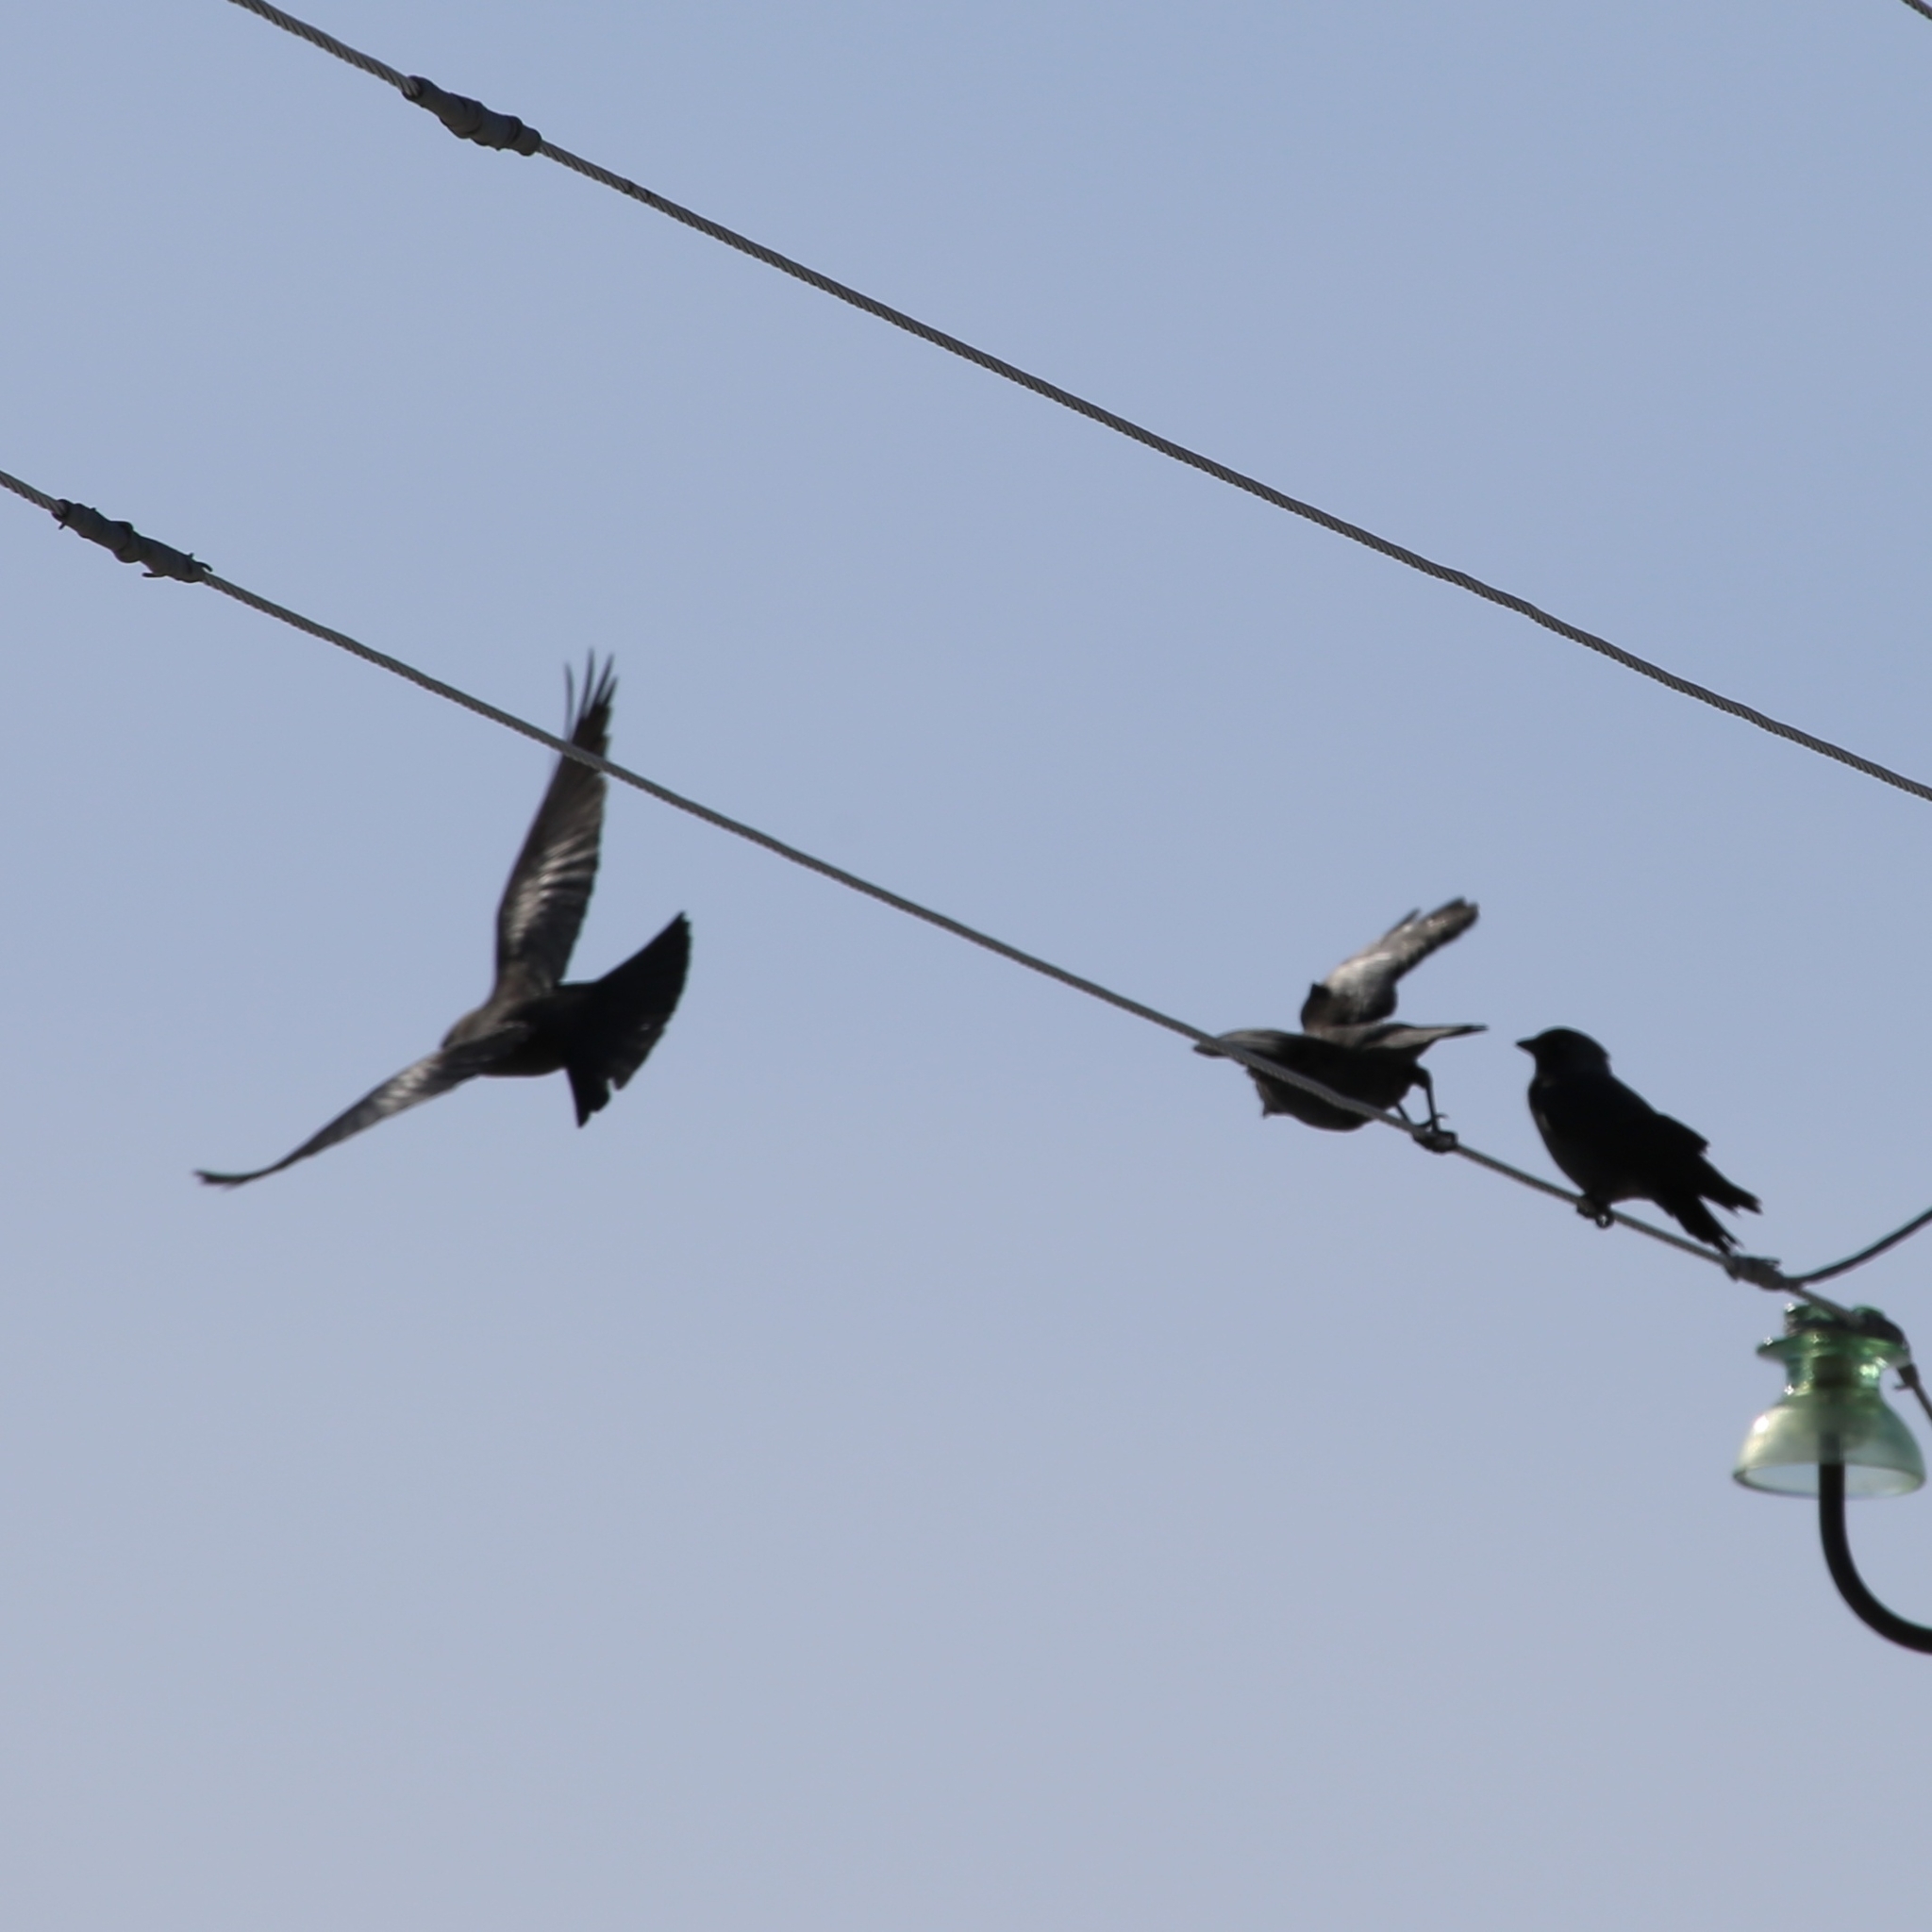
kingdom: Animalia
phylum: Chordata
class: Aves
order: Passeriformes
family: Corvidae
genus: Coloeus
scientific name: Coloeus monedula
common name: Western jackdaw
